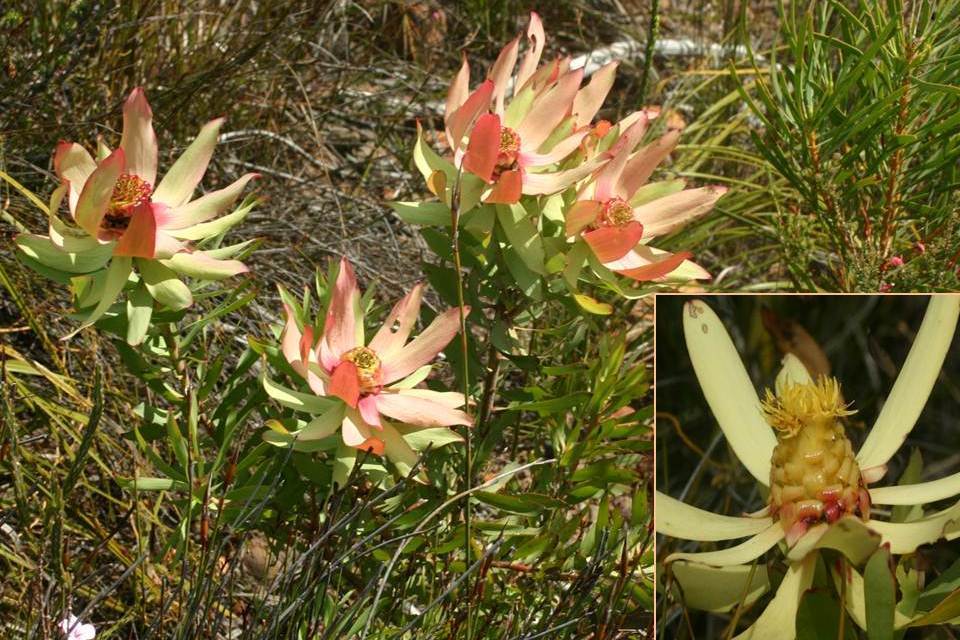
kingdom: Plantae
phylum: Tracheophyta
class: Magnoliopsida
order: Proteales
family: Proteaceae
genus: Leucadendron
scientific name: Leucadendron tinctum
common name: Spicy conebush
